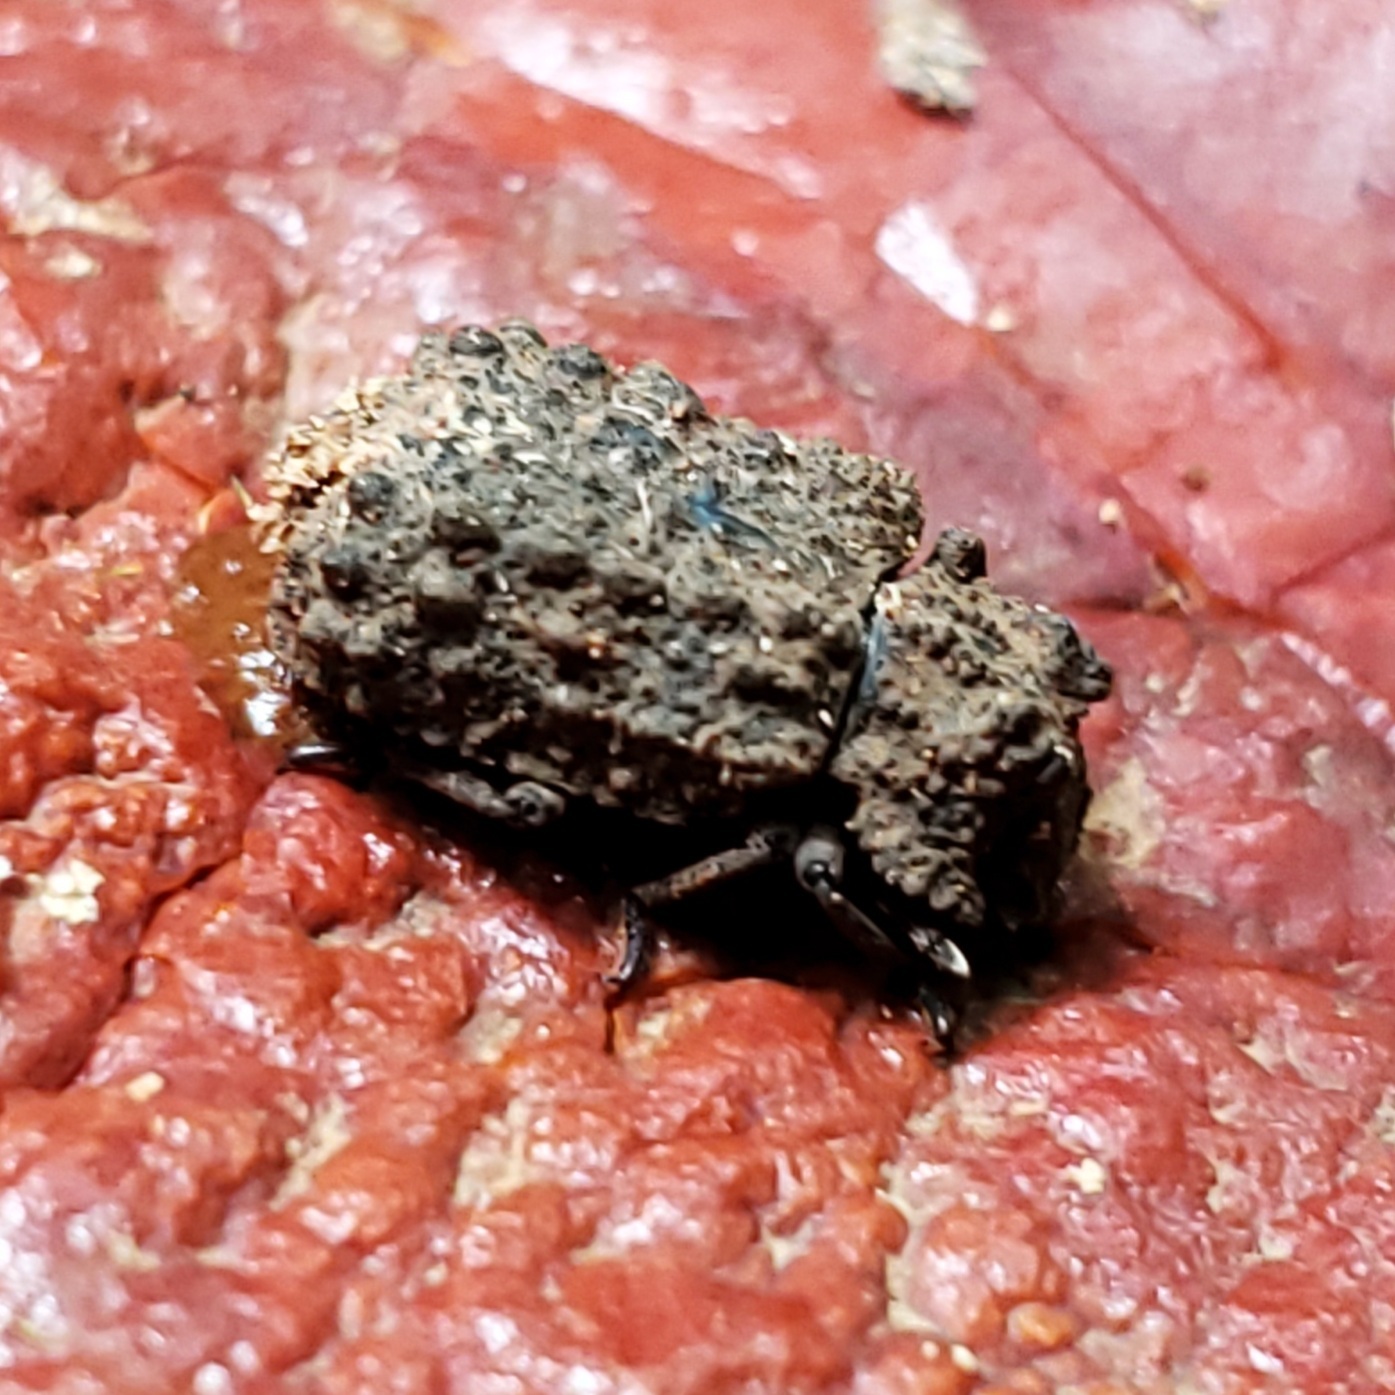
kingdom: Animalia
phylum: Arthropoda
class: Insecta
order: Coleoptera
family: Tenebrionidae
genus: Gnatocerus
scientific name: Gnatocerus cornutus
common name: Broad-horned flour beetle
